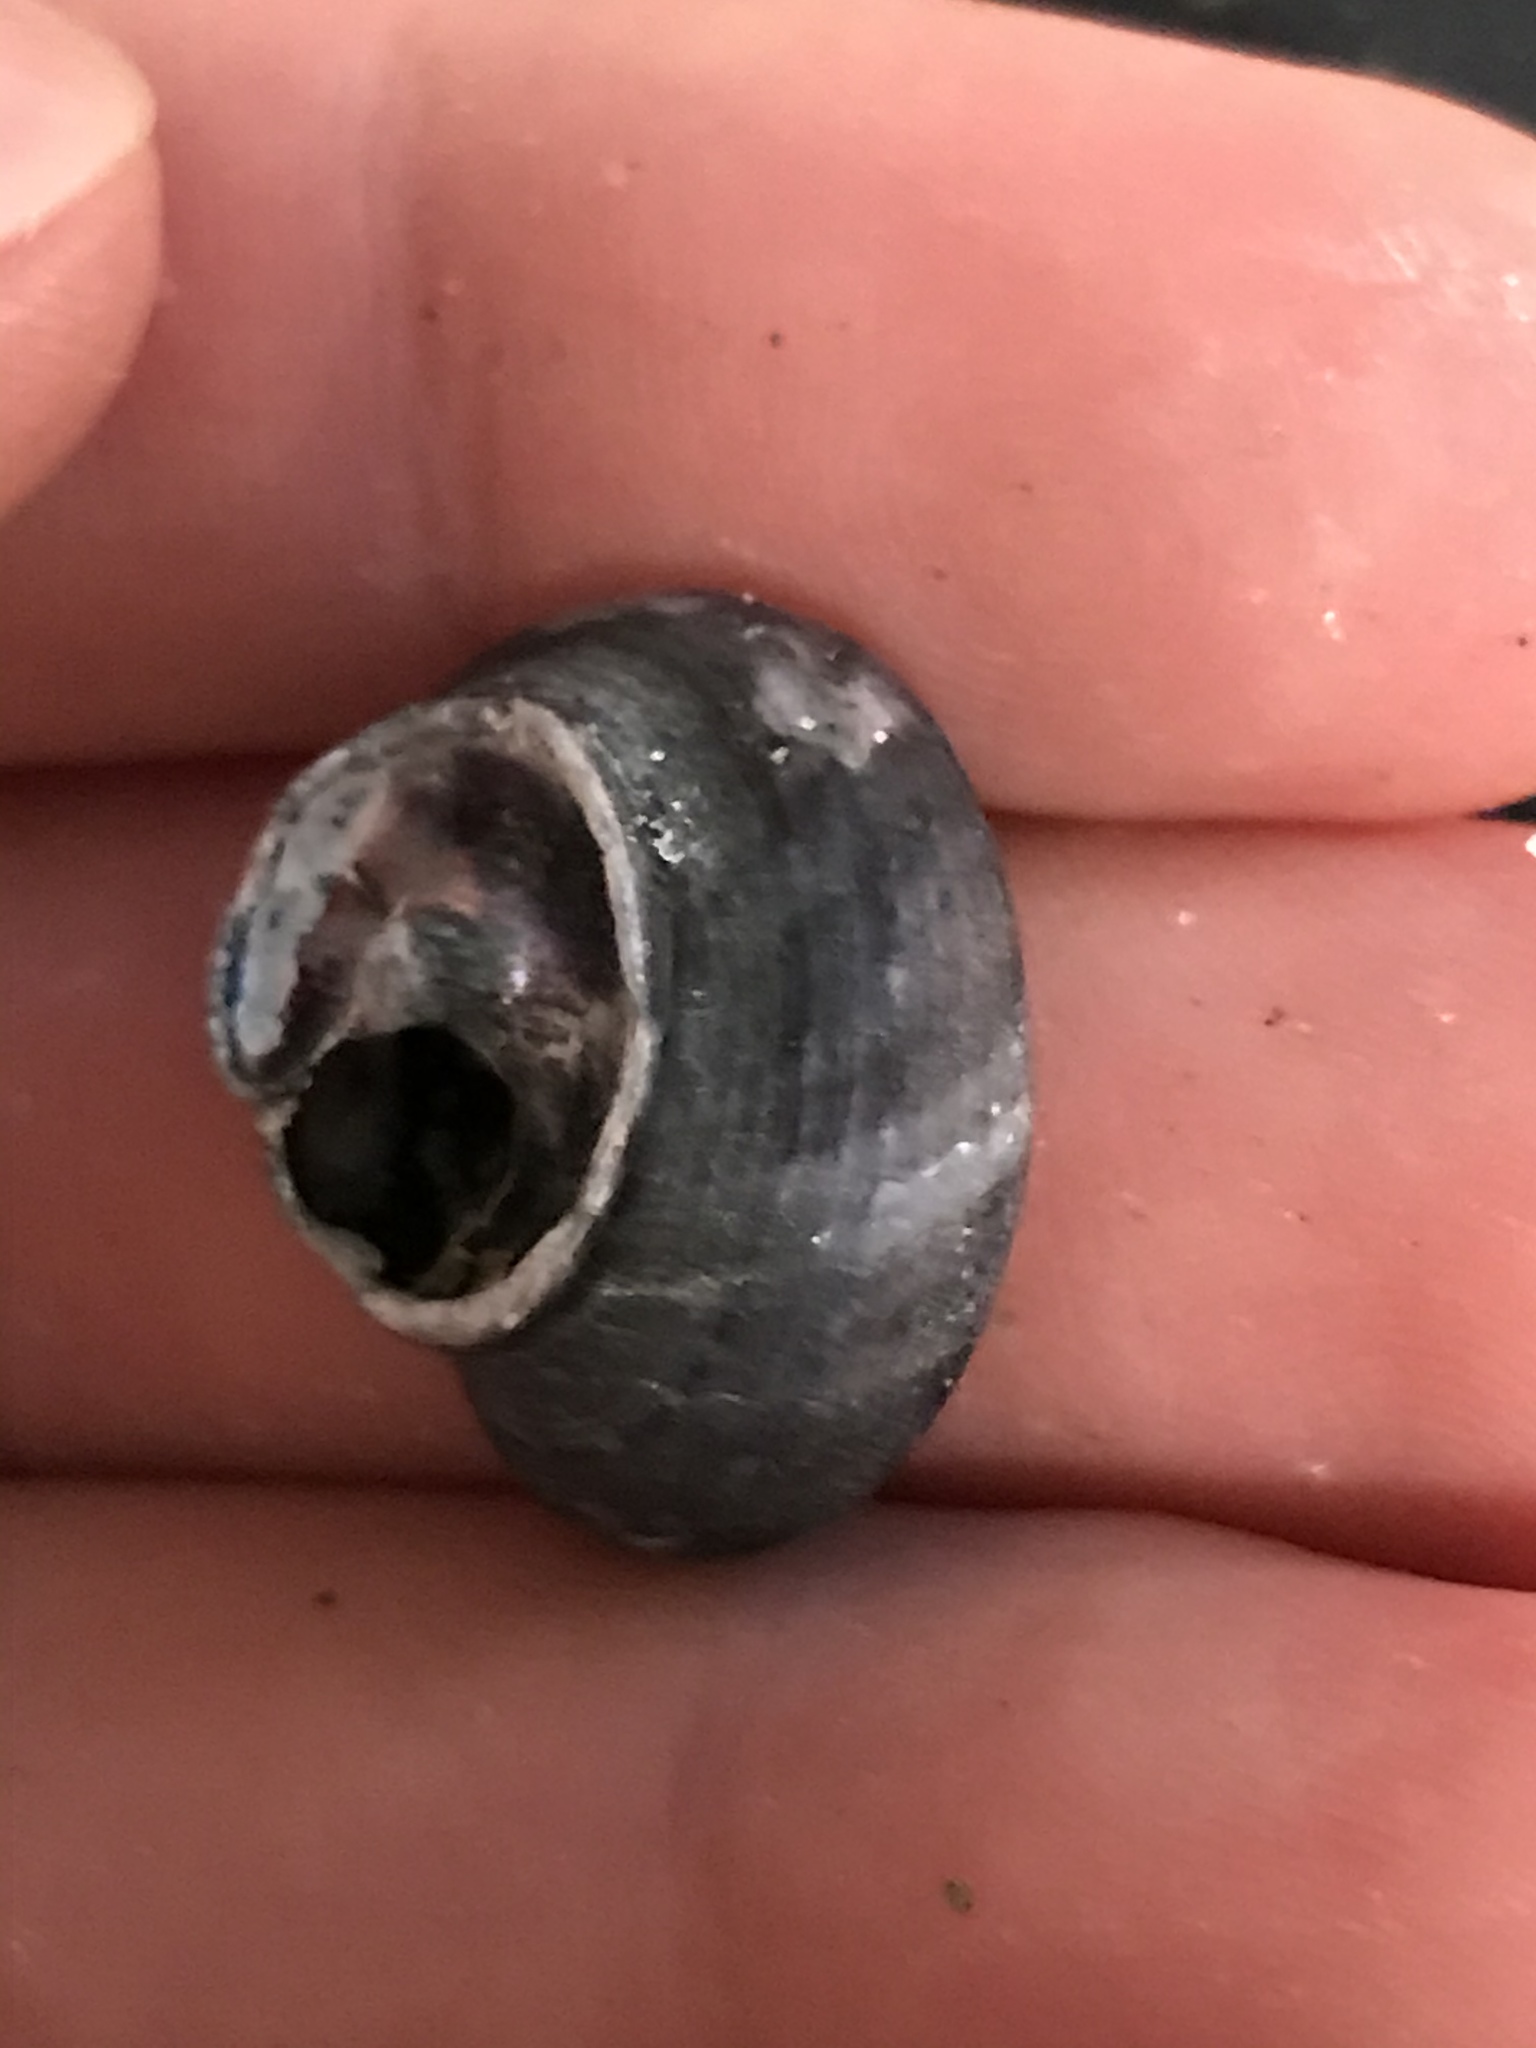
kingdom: Animalia
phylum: Mollusca
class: Gastropoda
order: Trochida
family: Calliostomatidae
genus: Calliostoma
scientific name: Calliostoma tricolor
